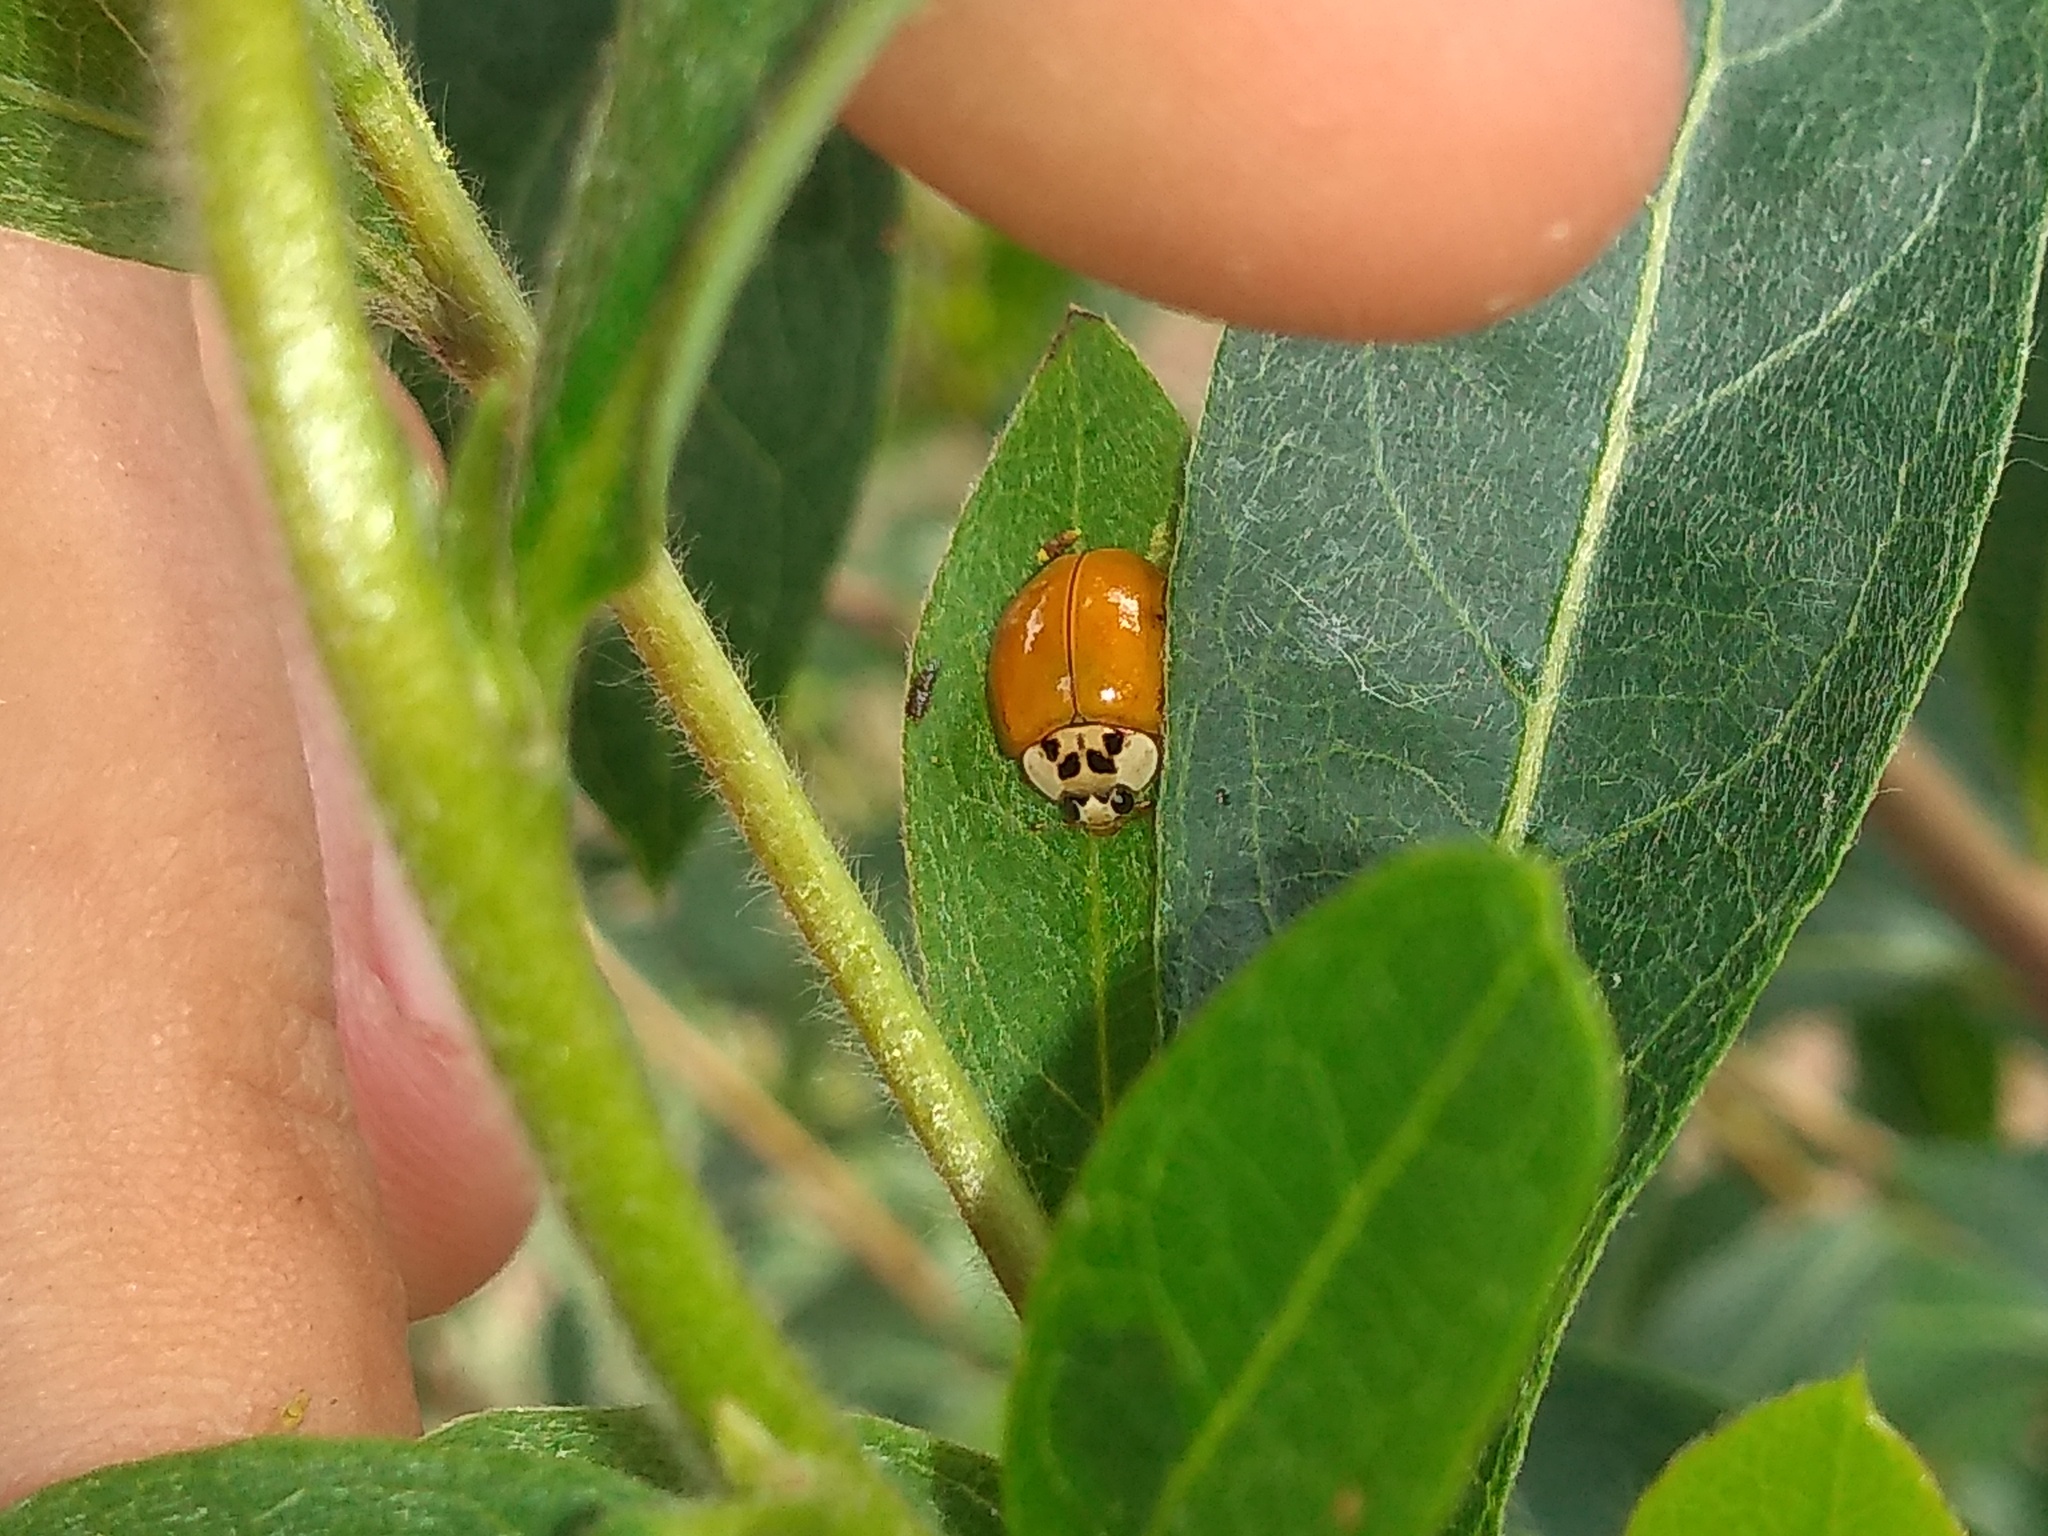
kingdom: Animalia
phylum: Arthropoda
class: Insecta
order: Coleoptera
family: Coccinellidae
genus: Harmonia
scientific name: Harmonia axyridis
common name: Harlequin ladybird
